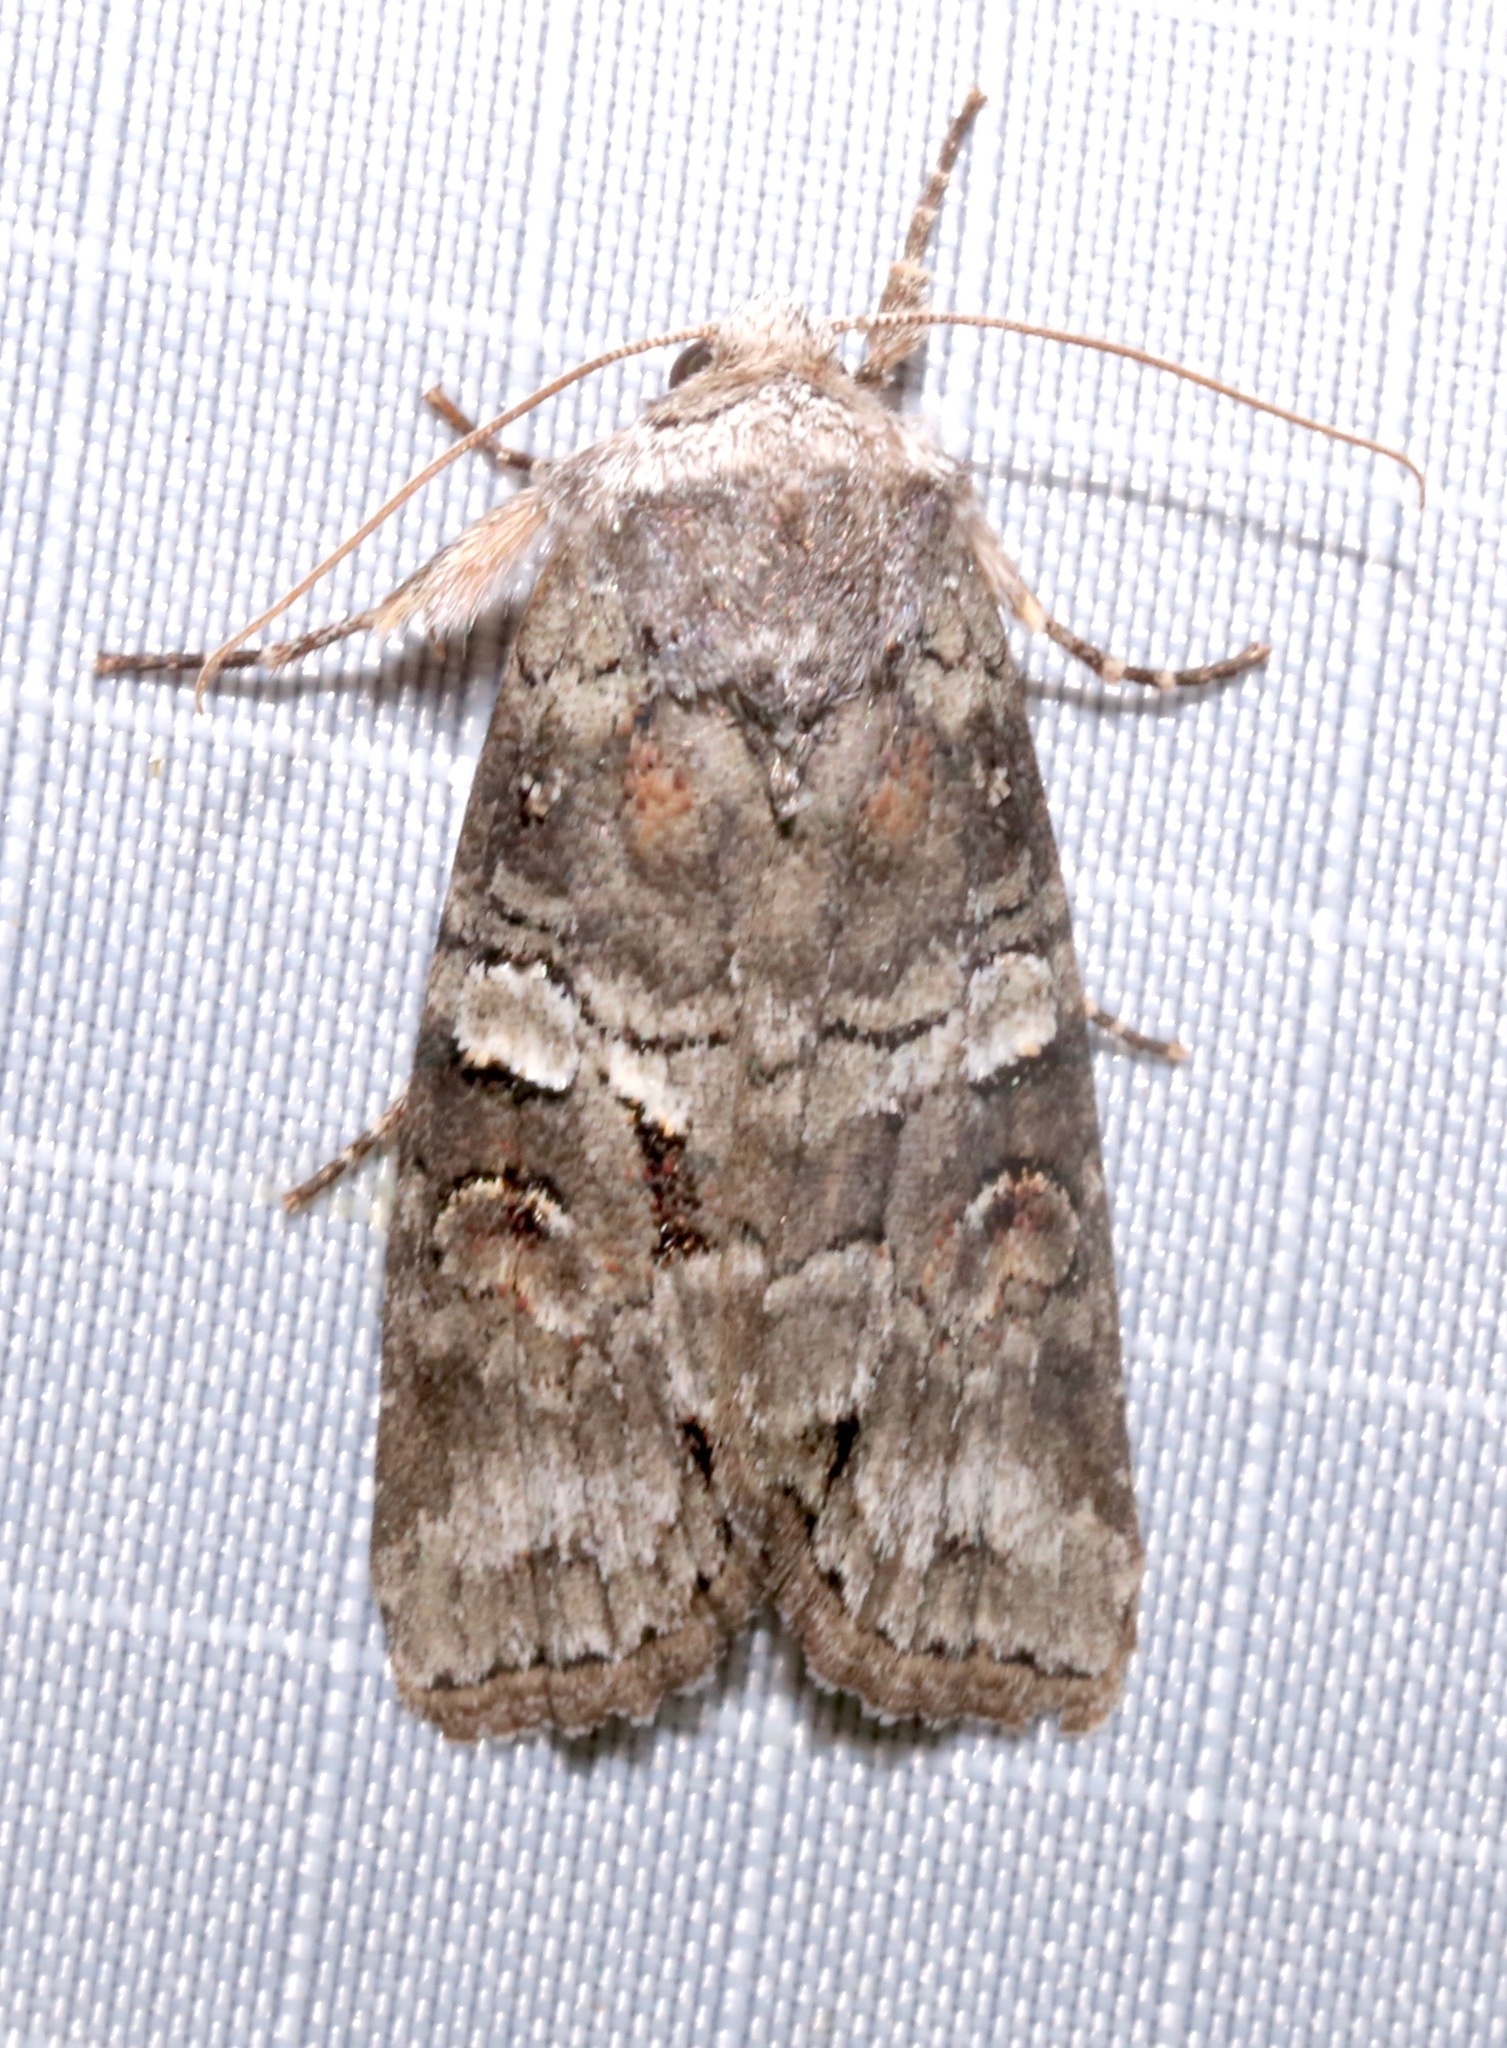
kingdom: Animalia
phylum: Arthropoda
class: Insecta
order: Lepidoptera
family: Noctuidae
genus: Egira
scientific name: Egira alternans
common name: Alternate woodling
